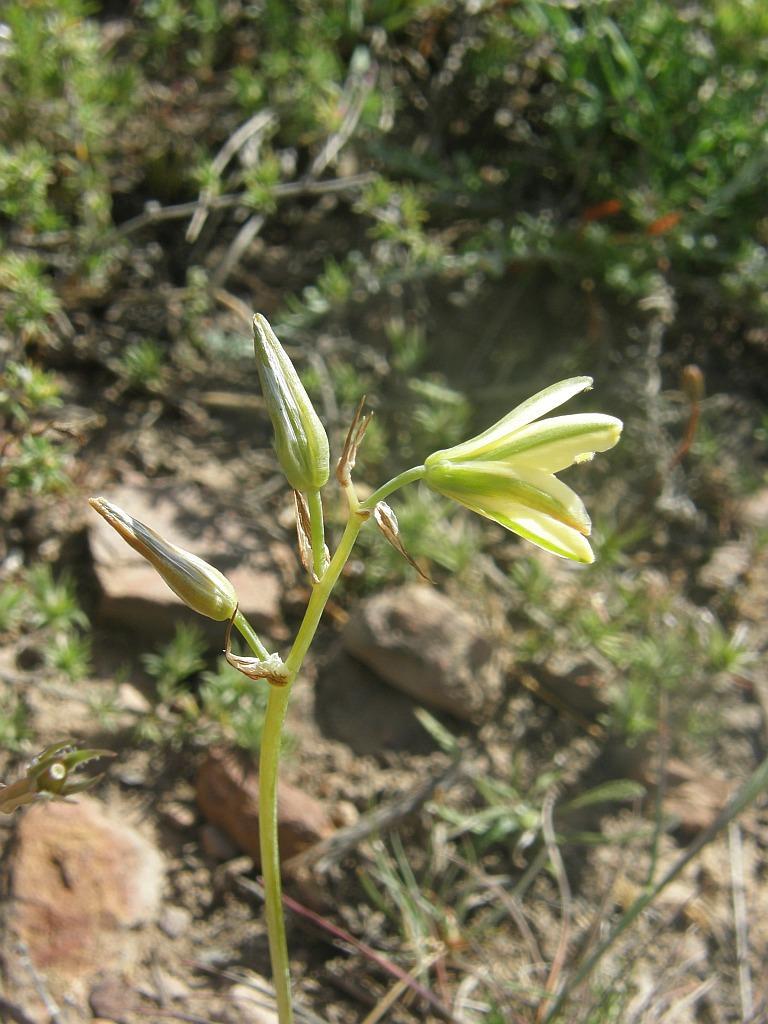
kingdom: Plantae
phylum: Tracheophyta
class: Liliopsida
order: Asparagales
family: Asparagaceae
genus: Albuca
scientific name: Albuca suaveolens
